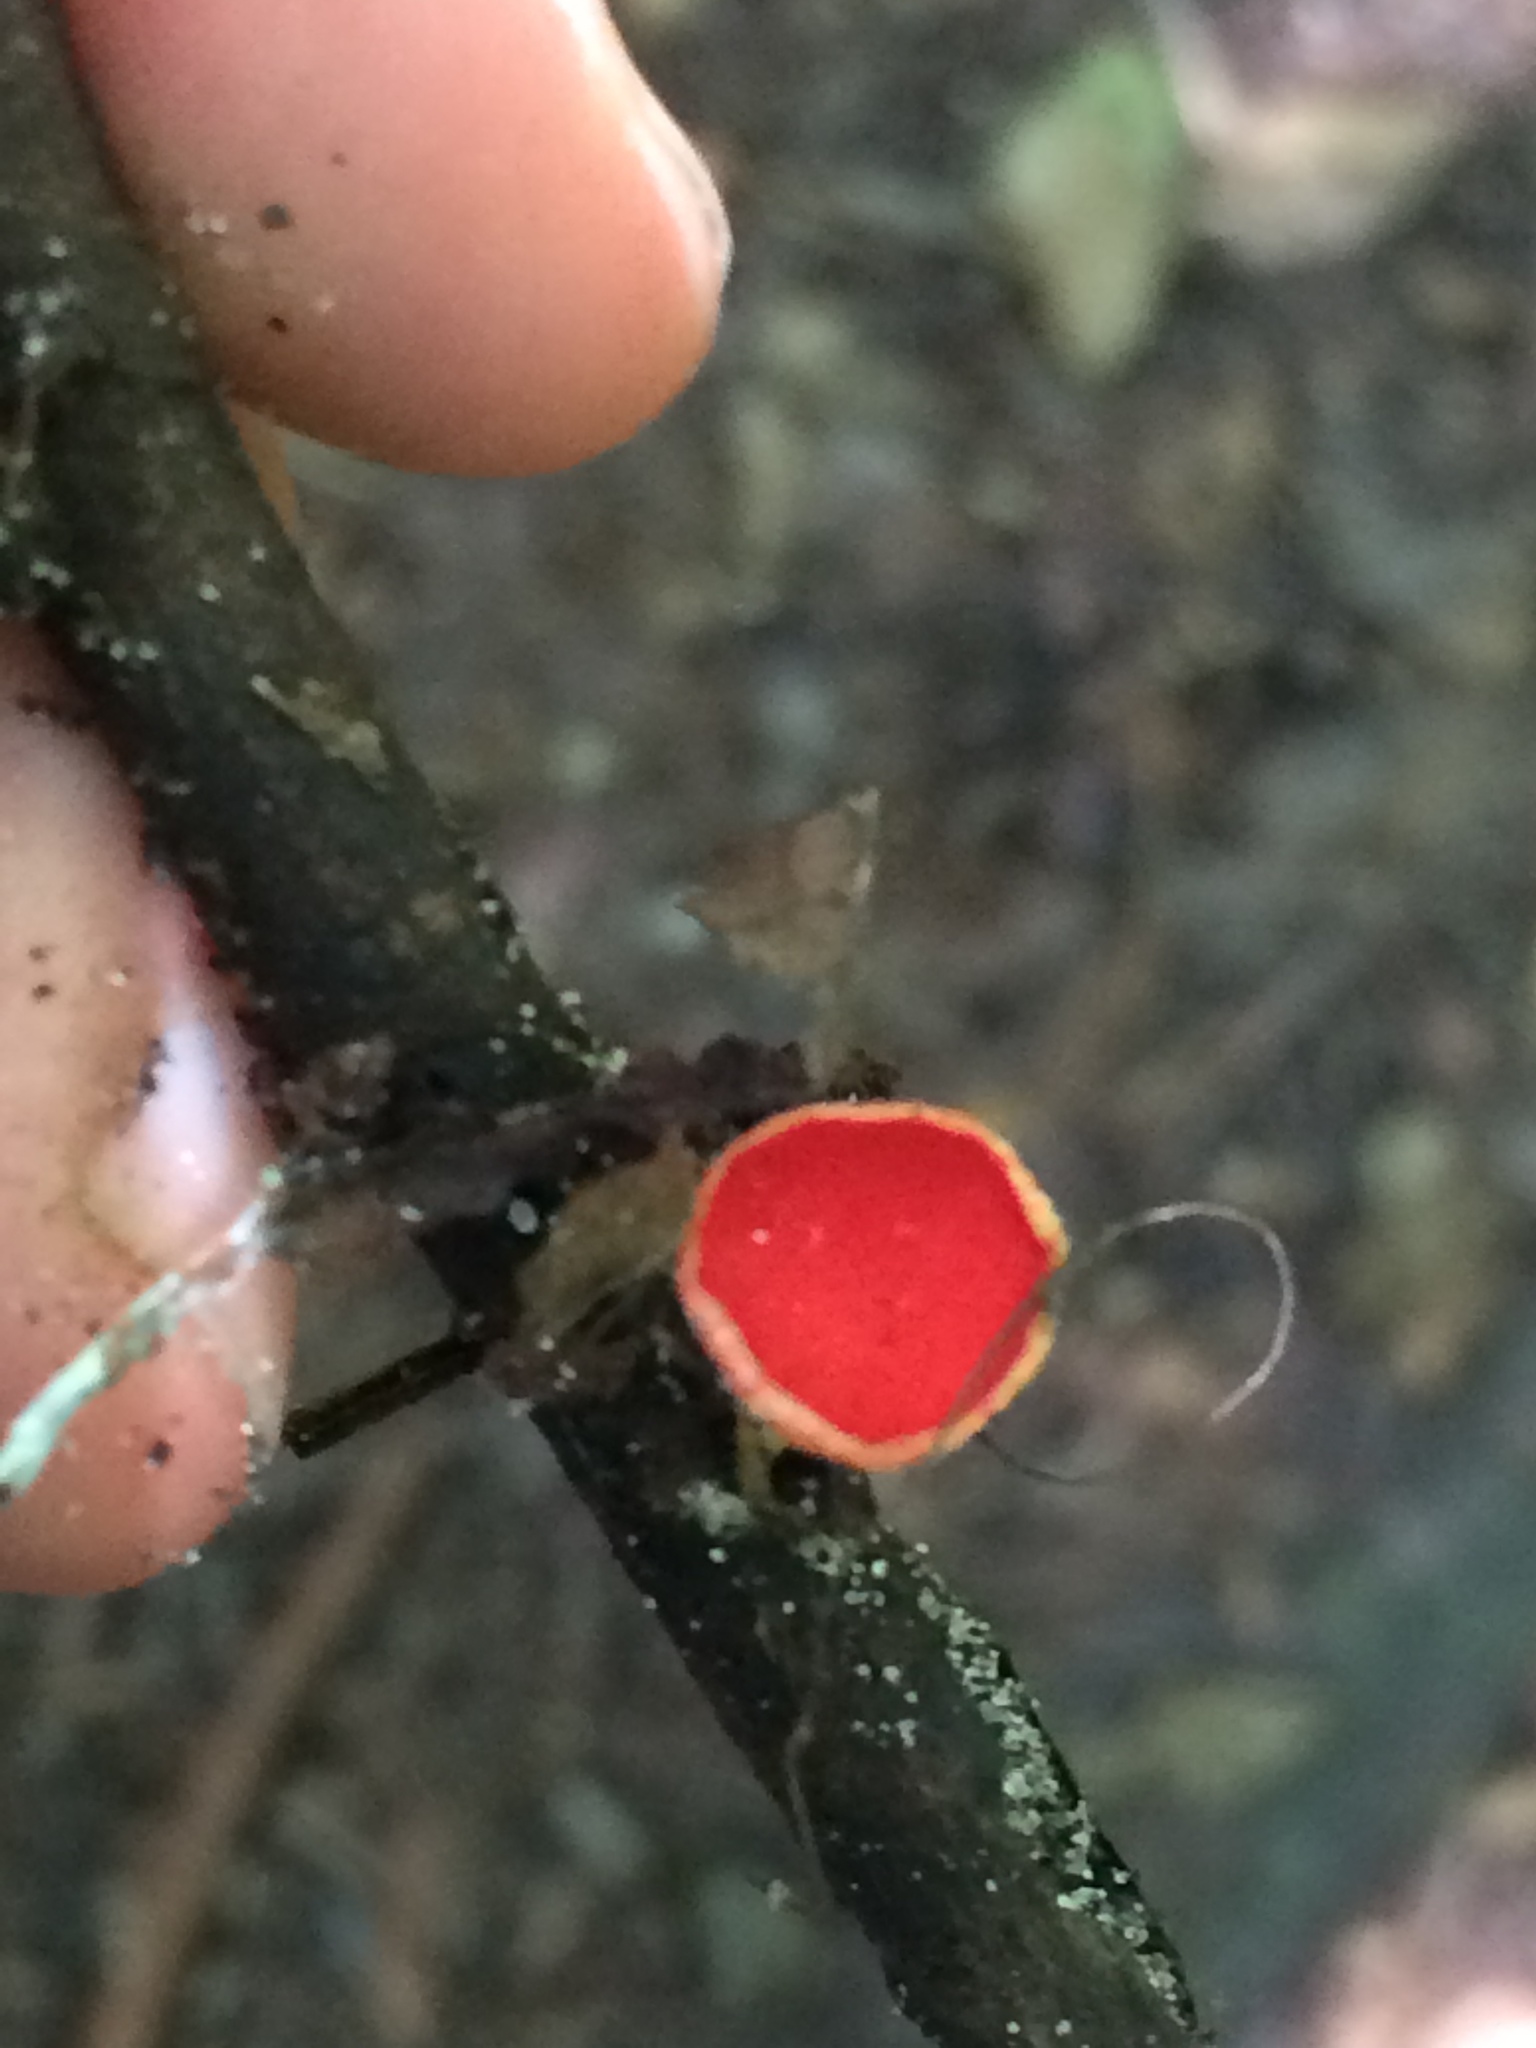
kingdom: Fungi
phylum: Ascomycota
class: Pezizomycetes
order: Pezizales
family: Sarcoscyphaceae
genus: Sarcoscypha
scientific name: Sarcoscypha occidentalis
